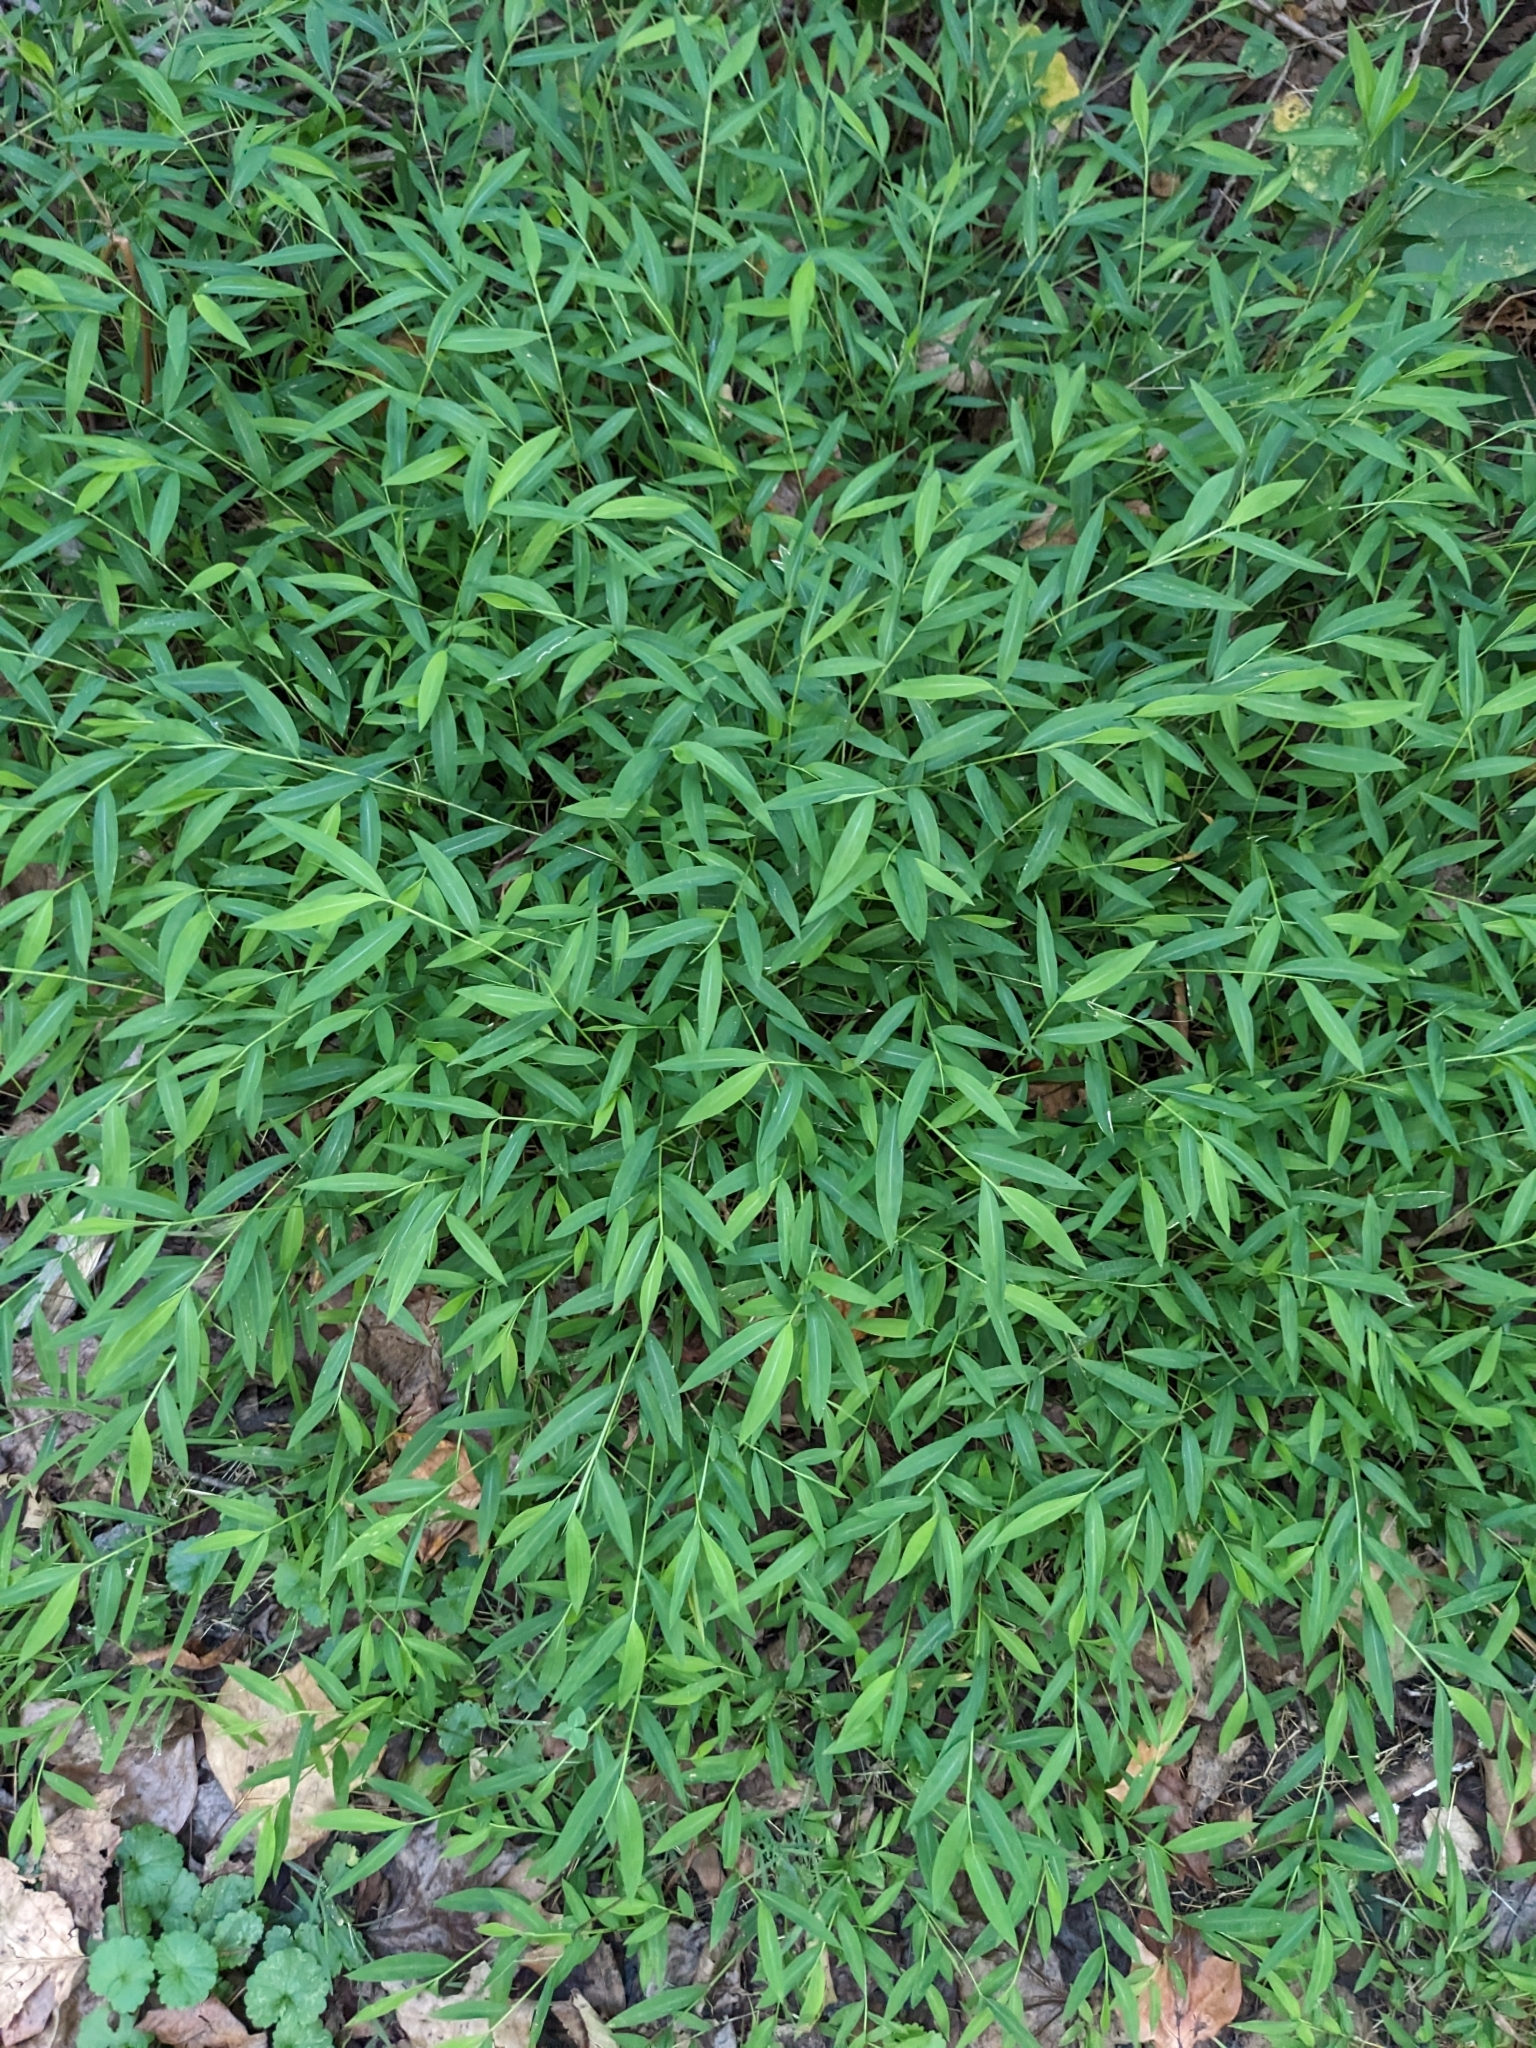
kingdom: Plantae
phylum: Tracheophyta
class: Liliopsida
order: Poales
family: Poaceae
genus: Microstegium
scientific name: Microstegium vimineum
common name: Japanese stiltgrass
